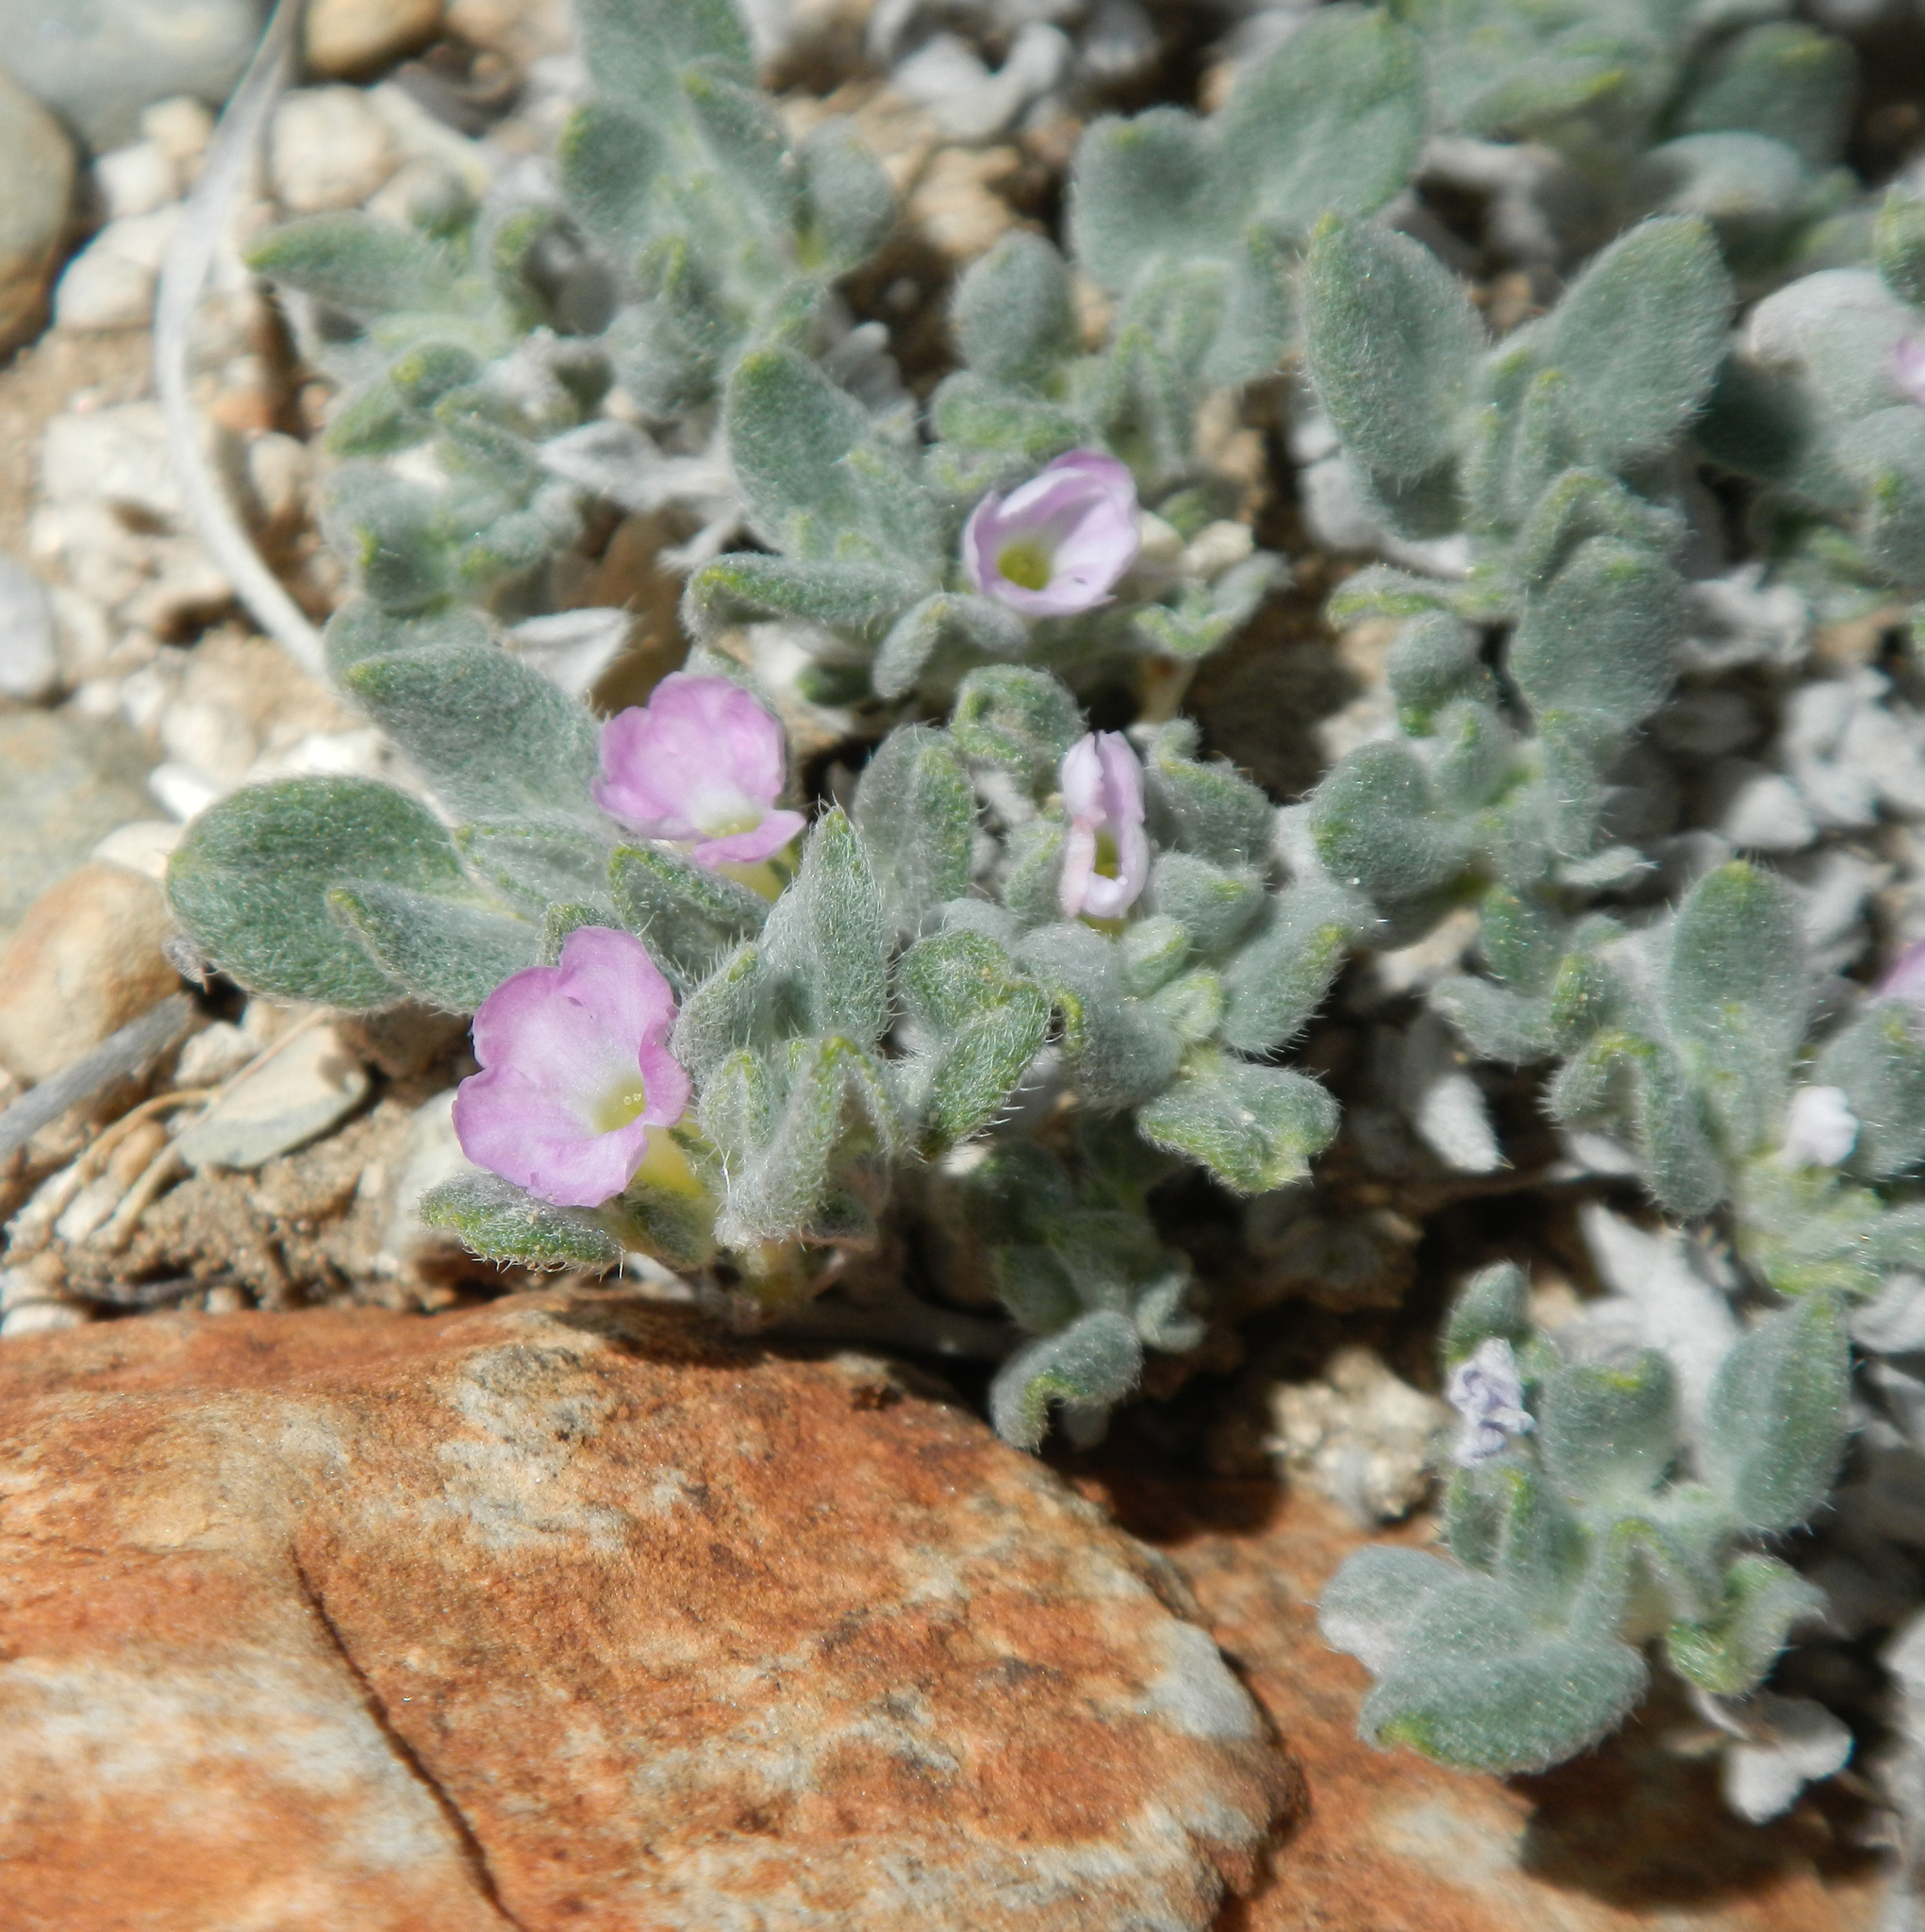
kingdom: Plantae
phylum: Tracheophyta
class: Magnoliopsida
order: Boraginales
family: Ehretiaceae
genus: Tiquilia
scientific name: Tiquilia canescens
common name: Hairy tiquilia
